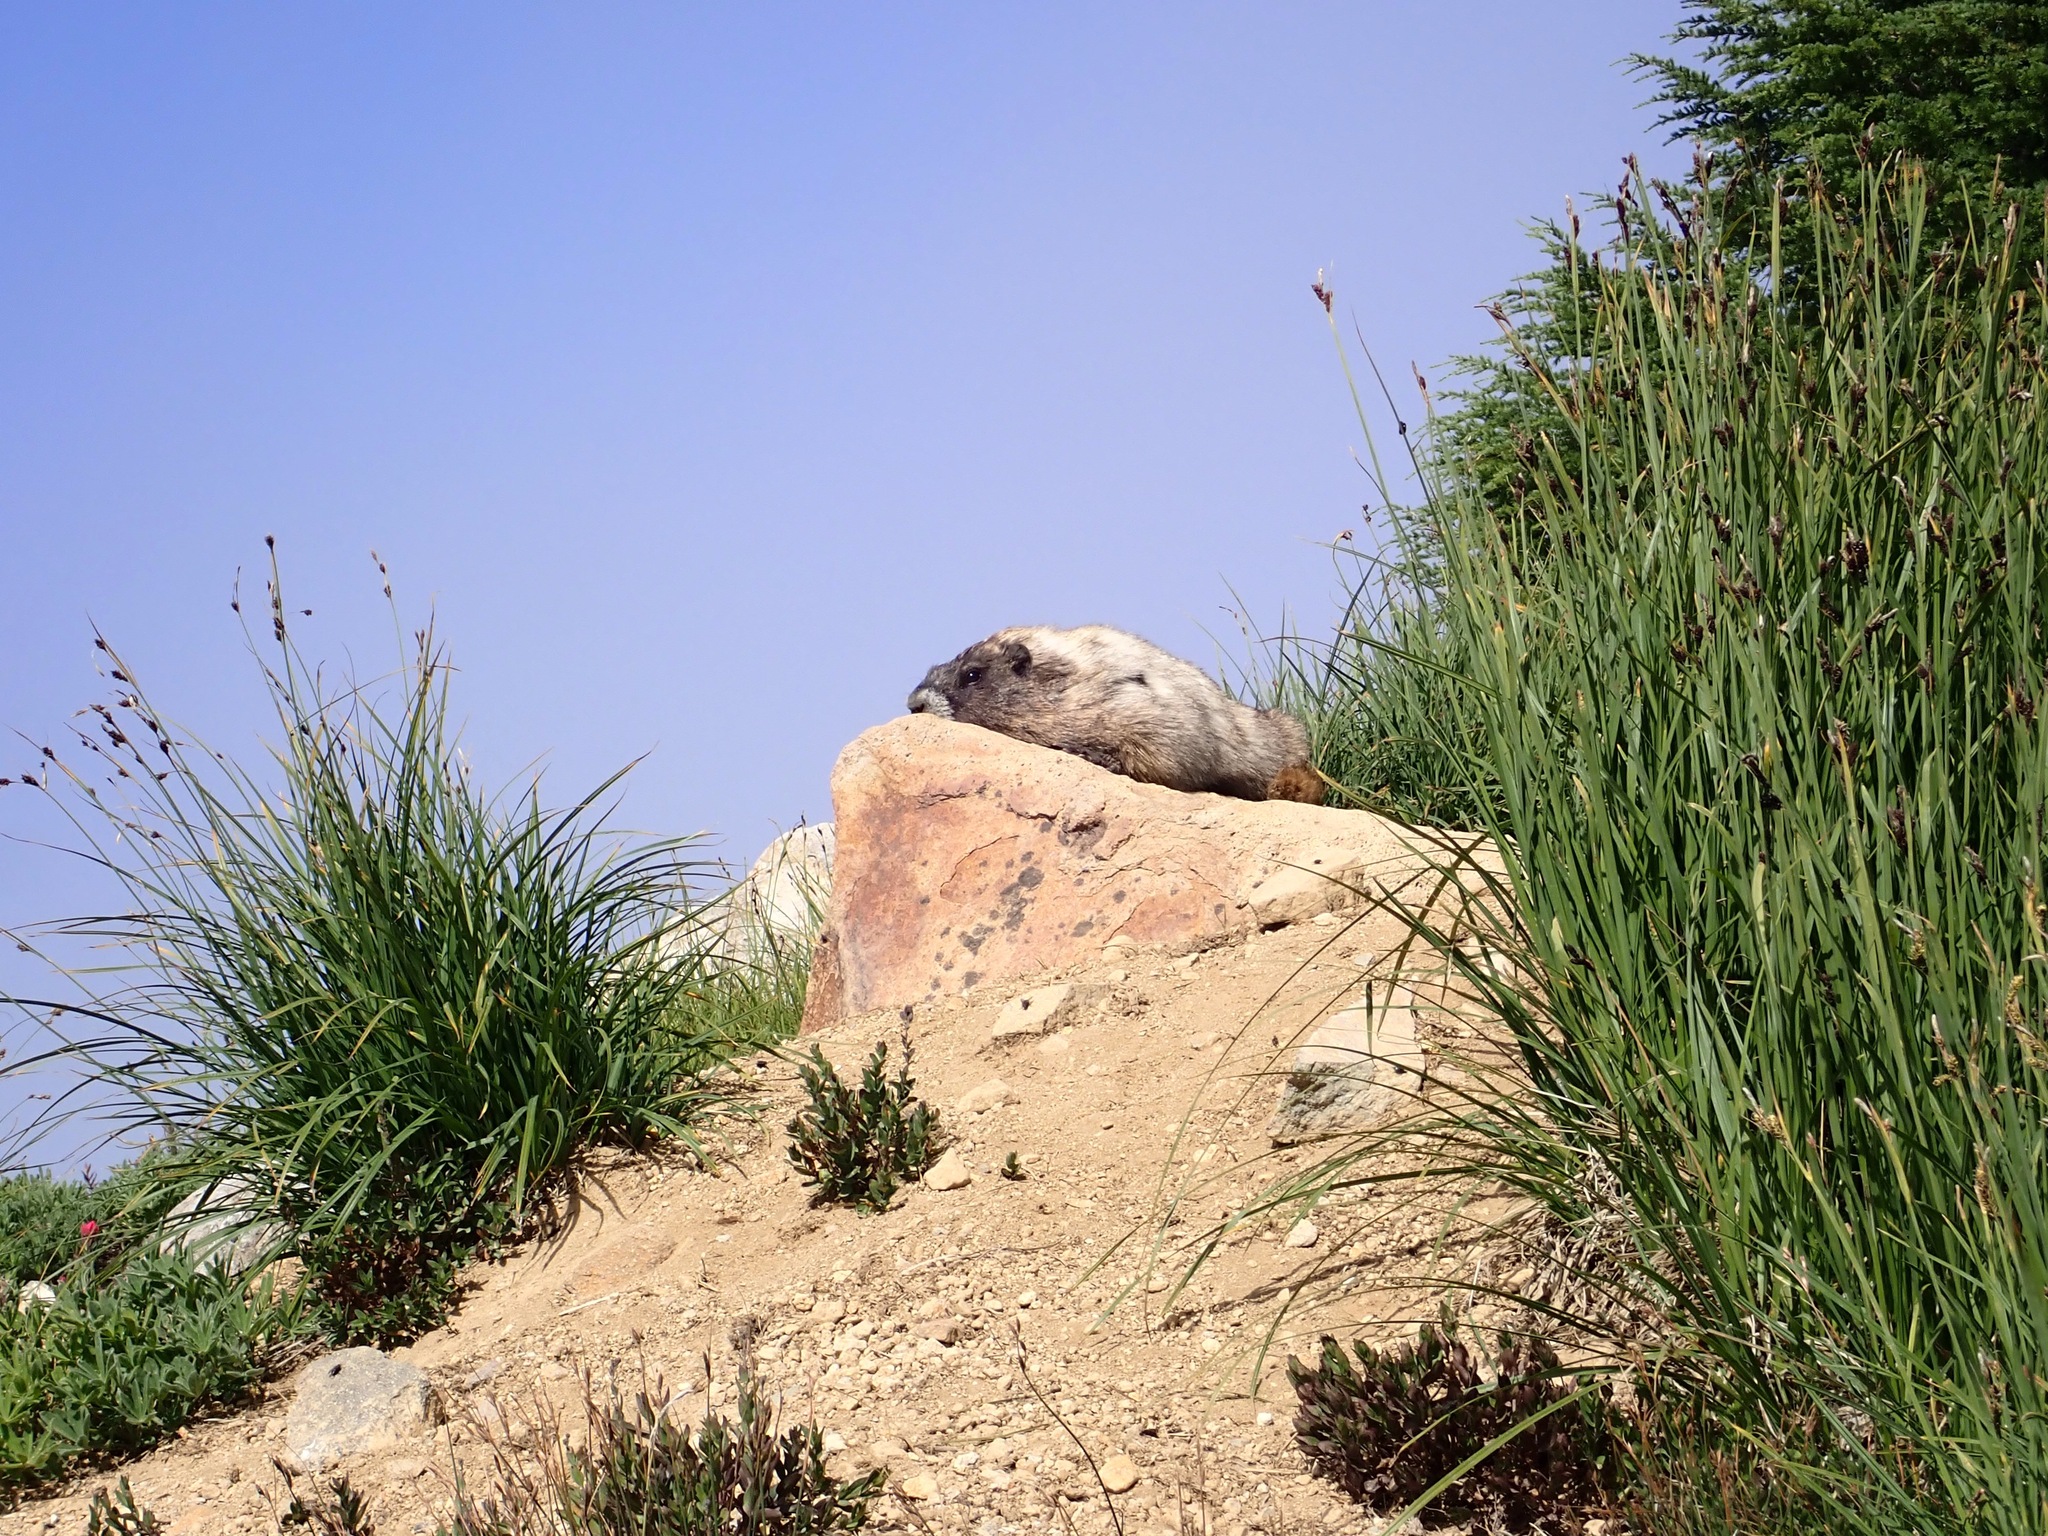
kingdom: Animalia
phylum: Chordata
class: Mammalia
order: Rodentia
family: Sciuridae
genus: Marmota
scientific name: Marmota caligata
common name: Hoary marmot
